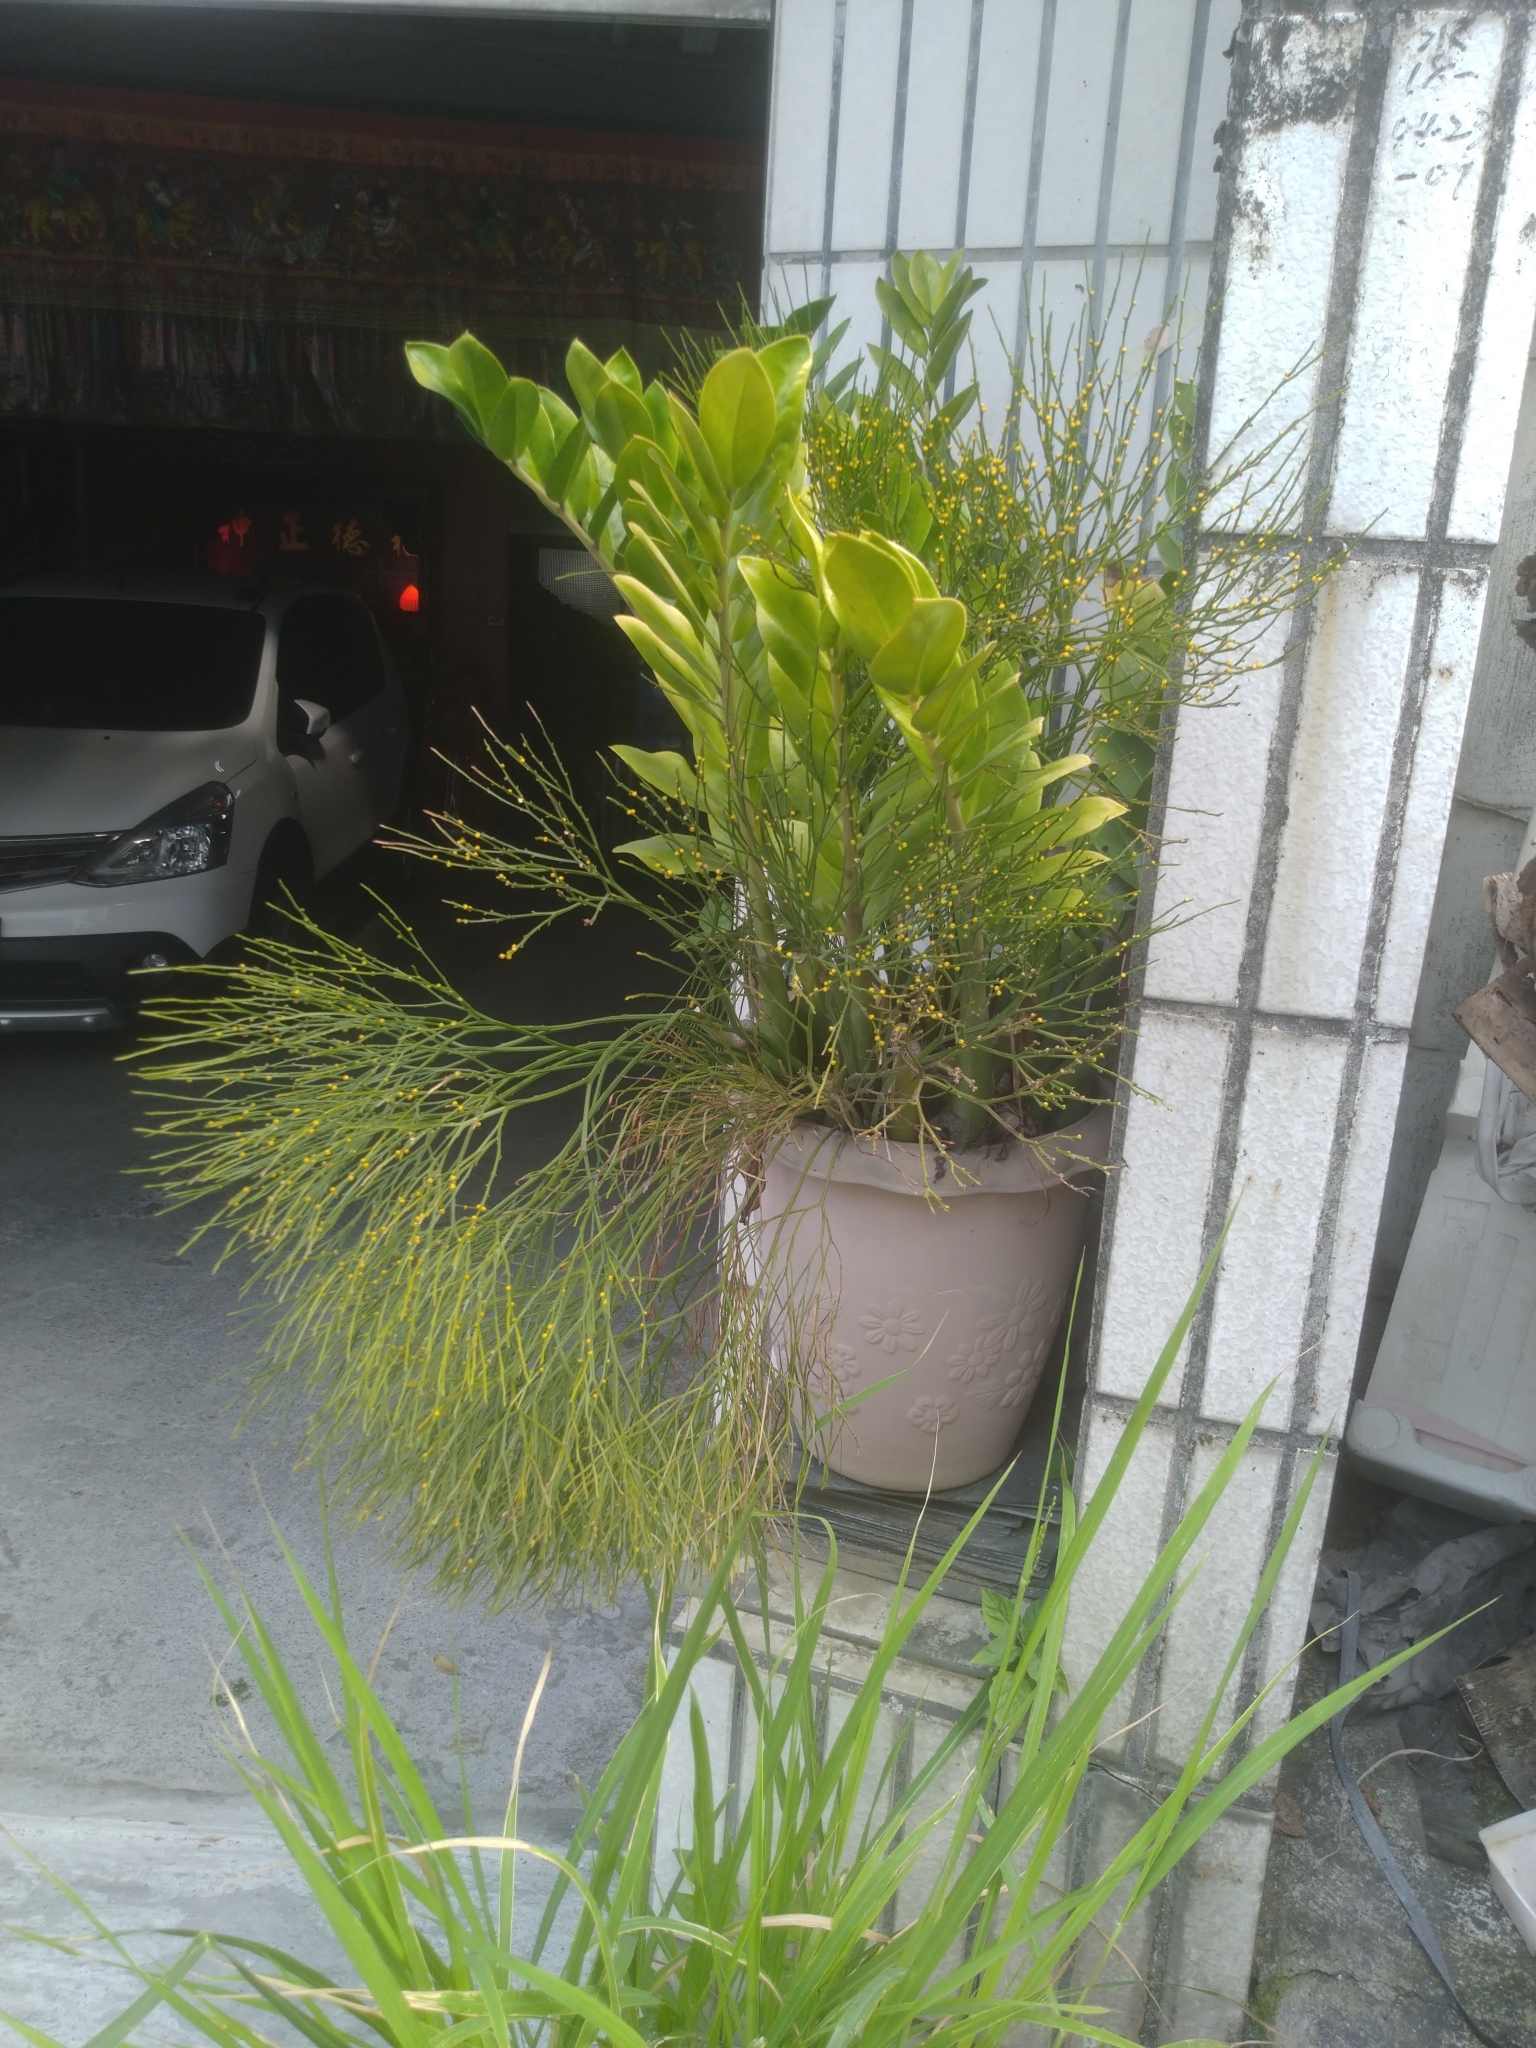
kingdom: Plantae
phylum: Tracheophyta
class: Polypodiopsida
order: Psilotales
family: Psilotaceae
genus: Psilotum
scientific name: Psilotum nudum
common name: Skeleton fork fern
